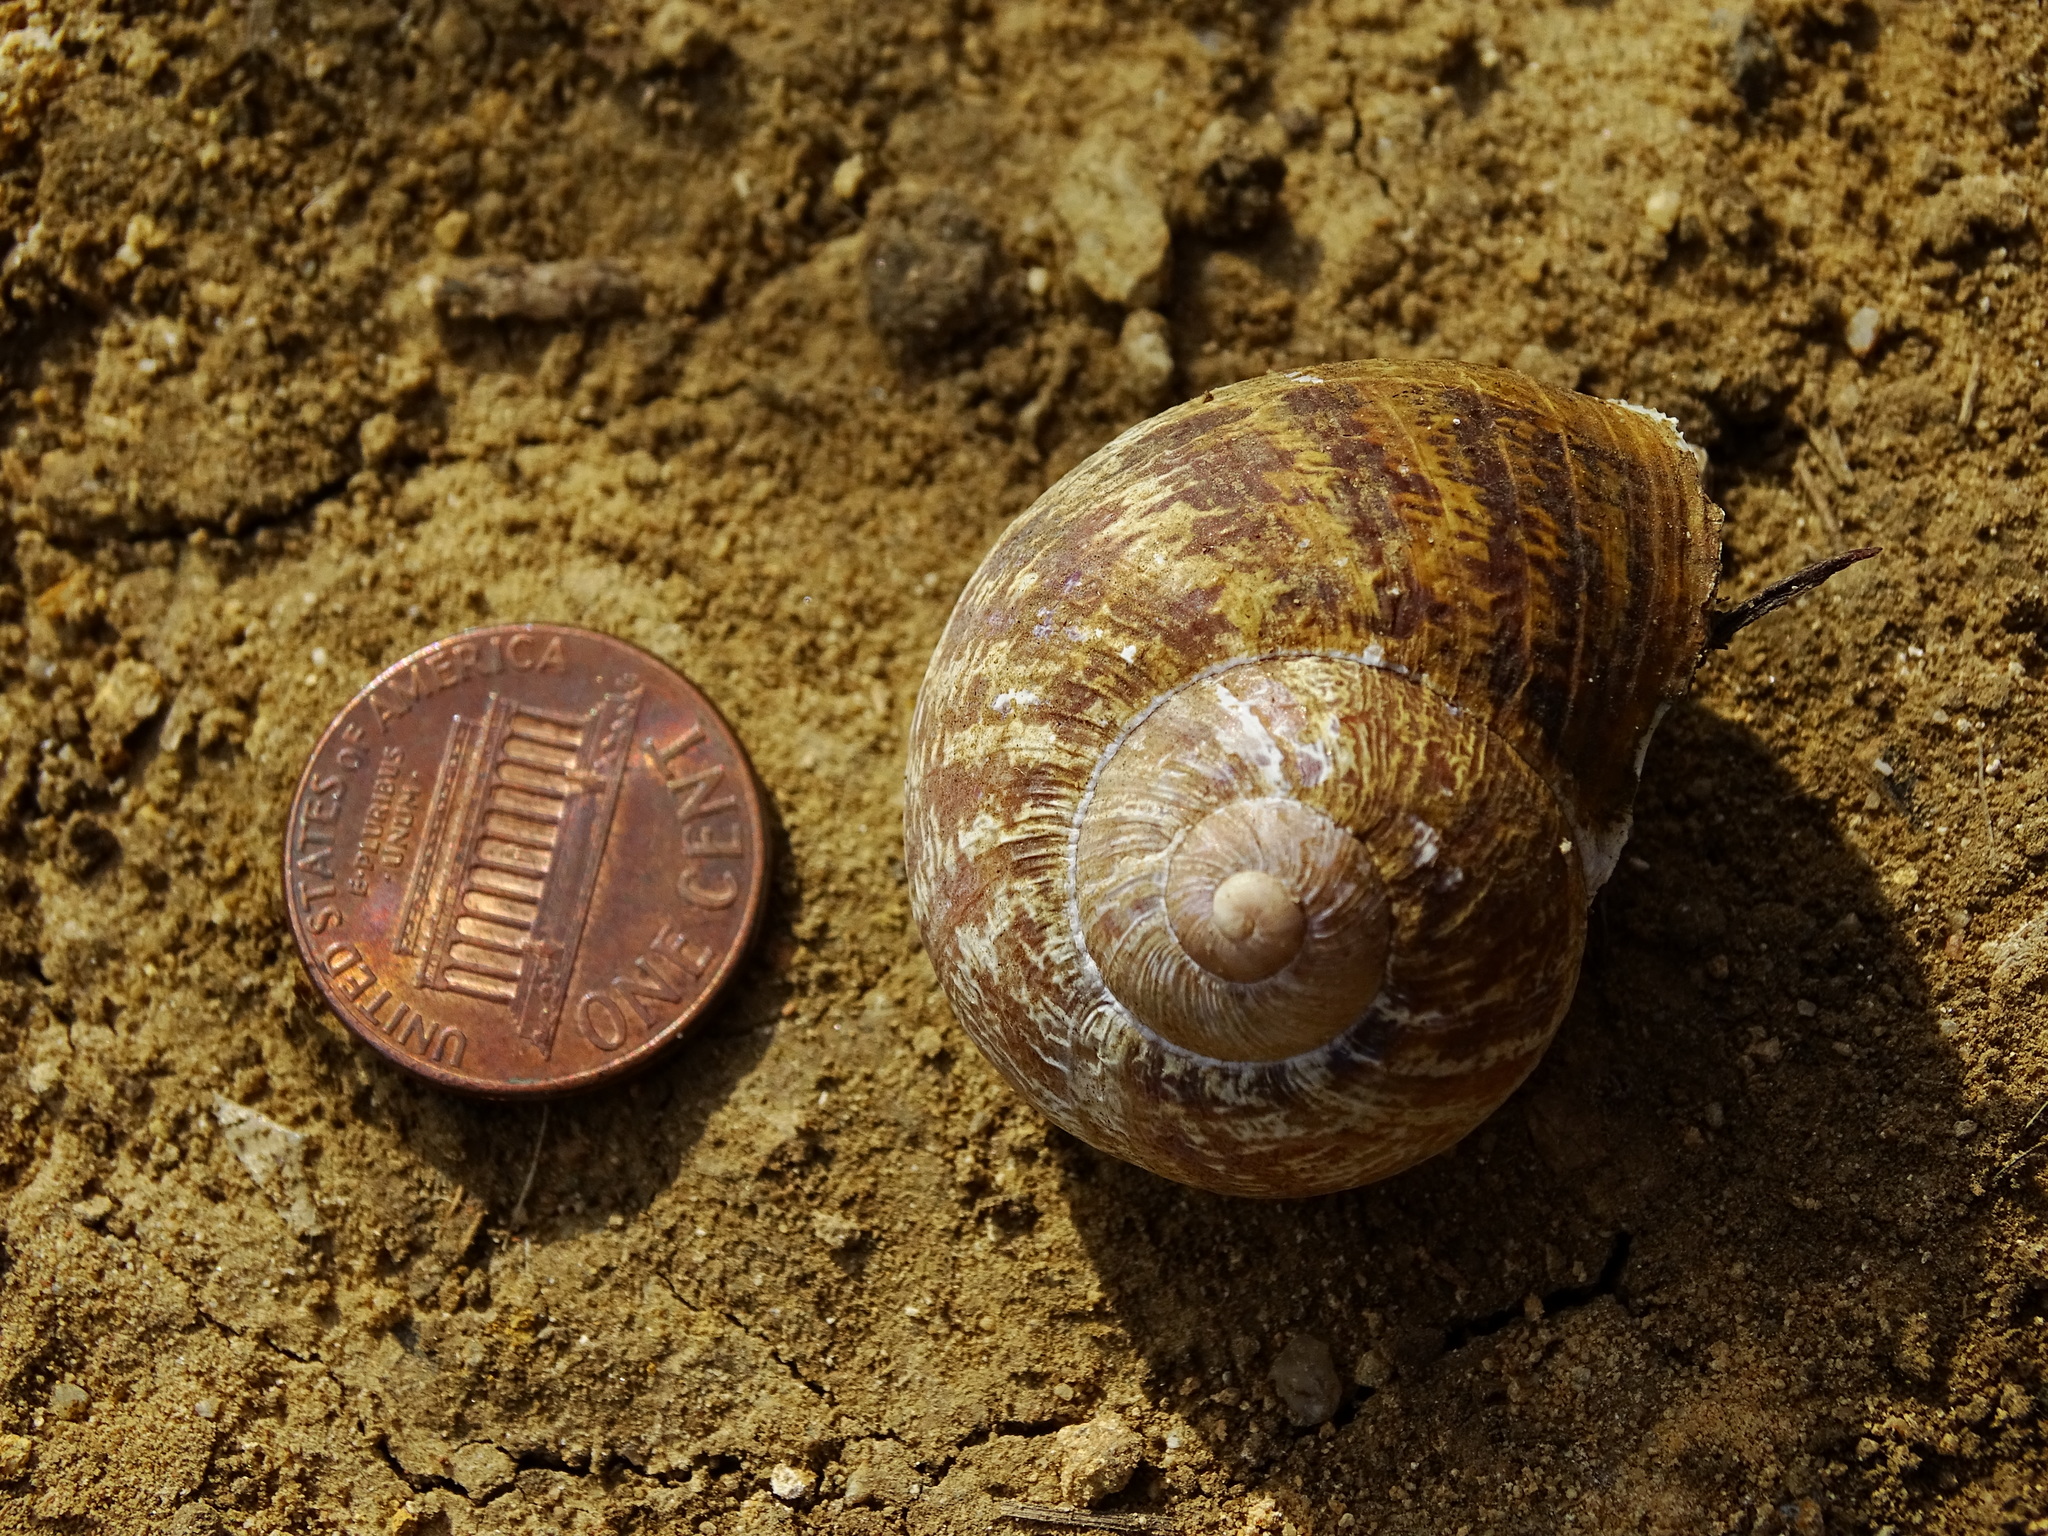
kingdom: Animalia
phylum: Mollusca
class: Gastropoda
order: Stylommatophora
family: Helicidae
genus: Cornu
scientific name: Cornu aspersum
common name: Brown garden snail
